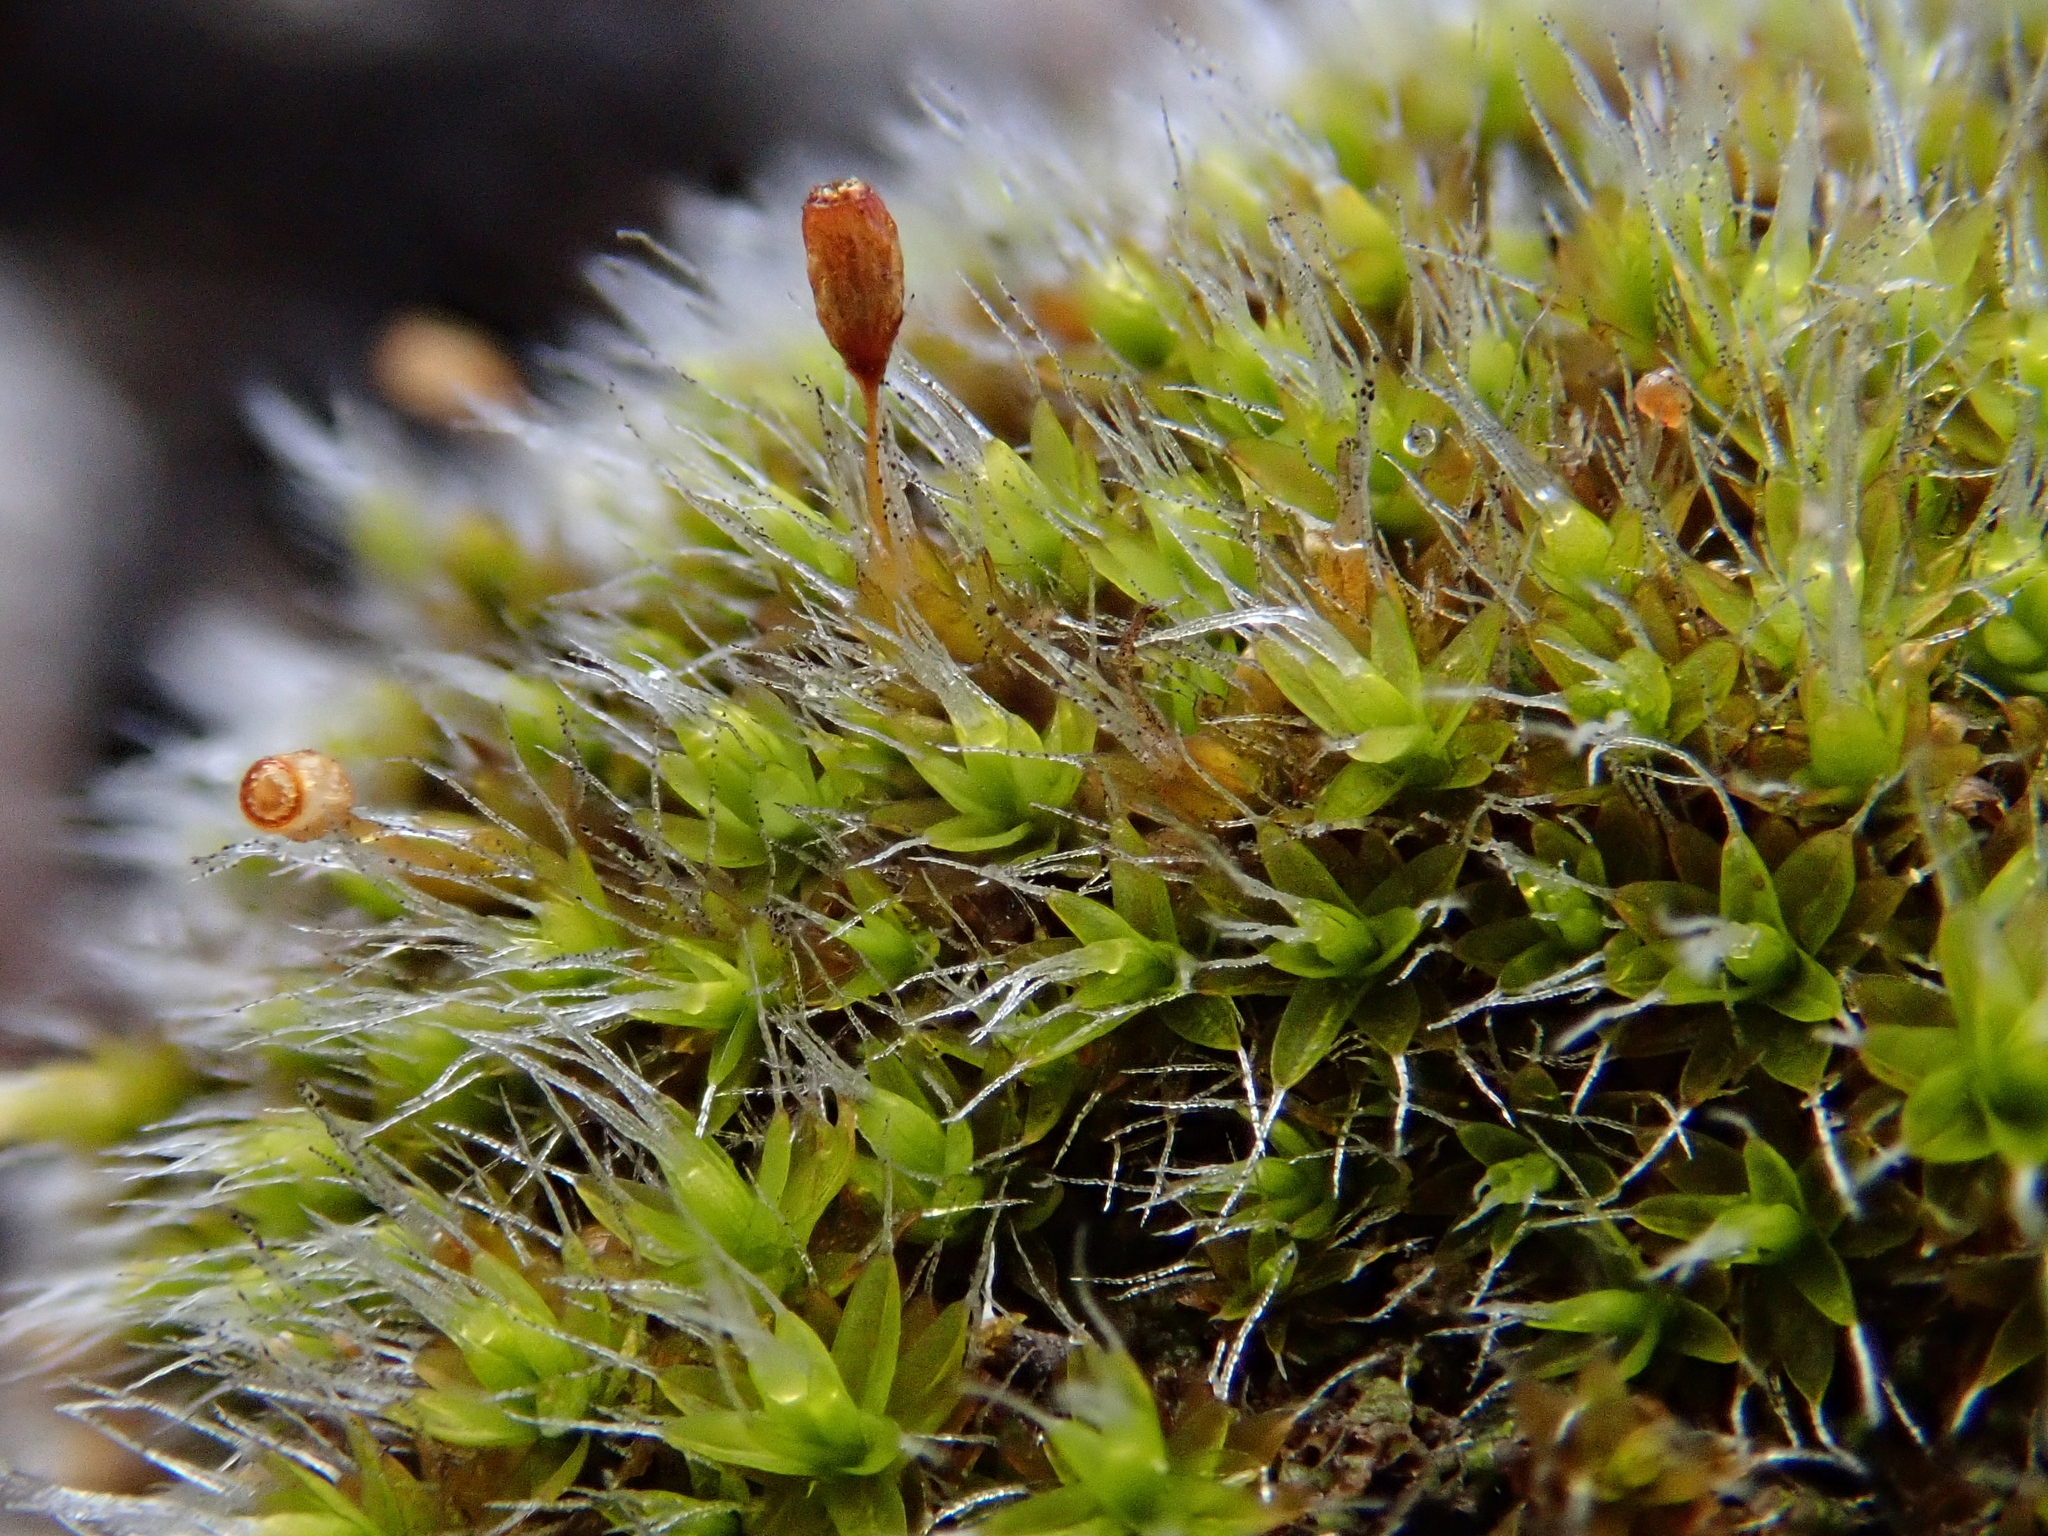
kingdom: Plantae
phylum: Bryophyta
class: Bryopsida
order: Grimmiales
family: Grimmiaceae
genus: Grimmia
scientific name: Grimmia laevigata
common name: Hoary grimmia
